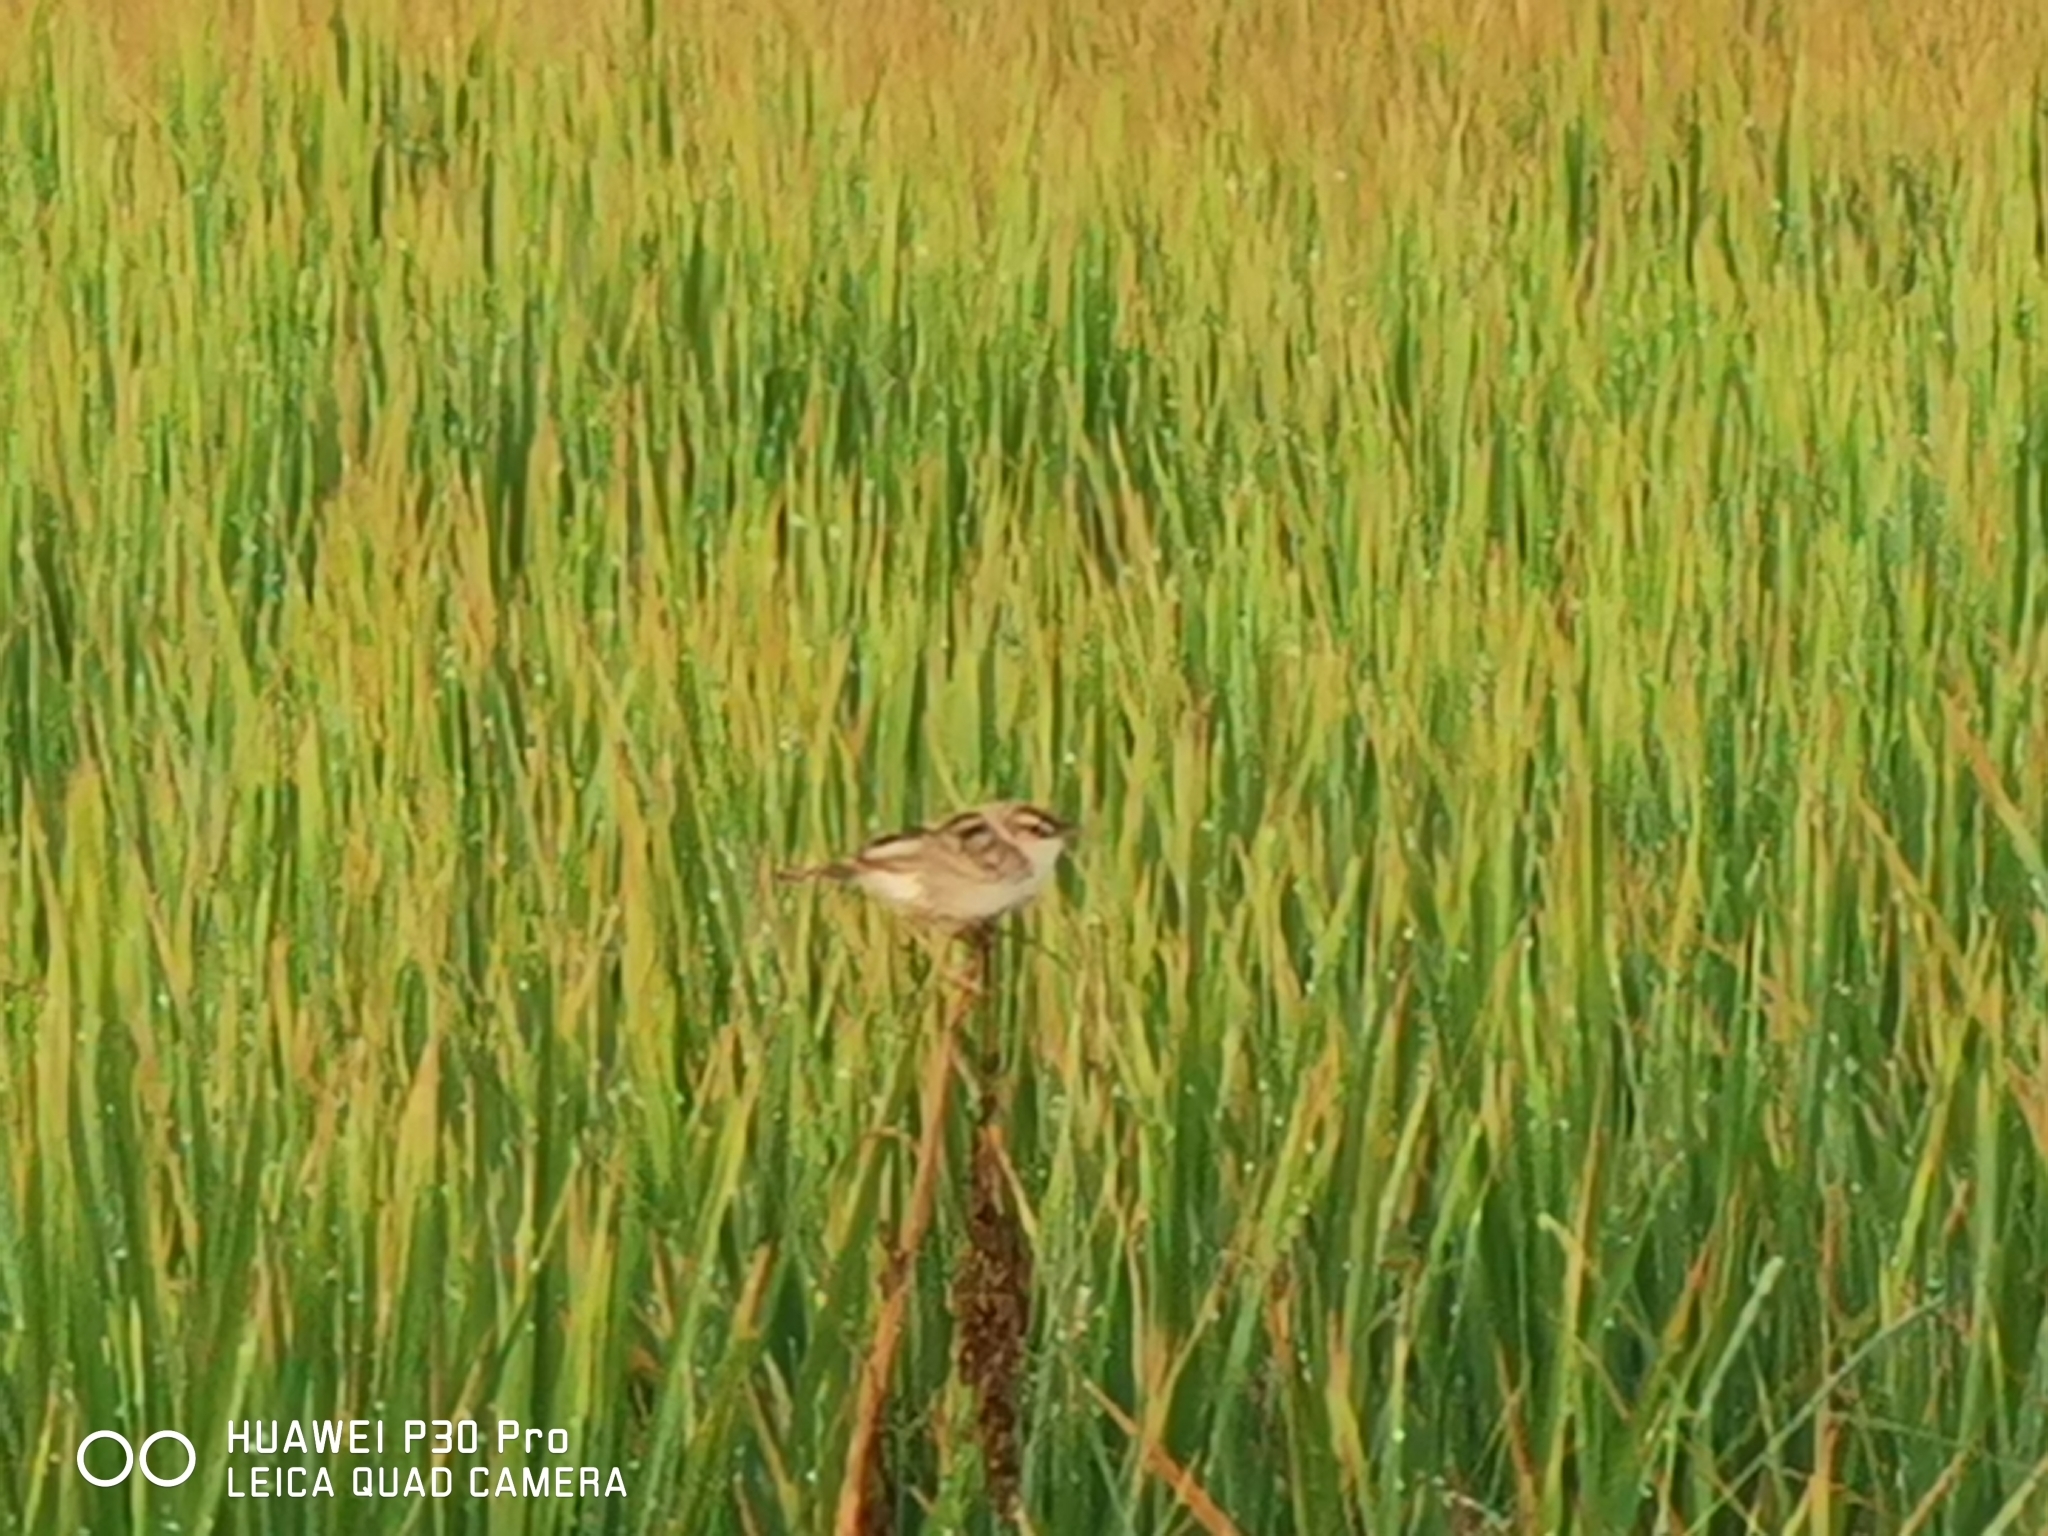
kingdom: Animalia
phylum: Chordata
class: Aves
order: Passeriformes
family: Cisticolidae
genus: Cisticola
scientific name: Cisticola juncidis
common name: Zitting cisticola
